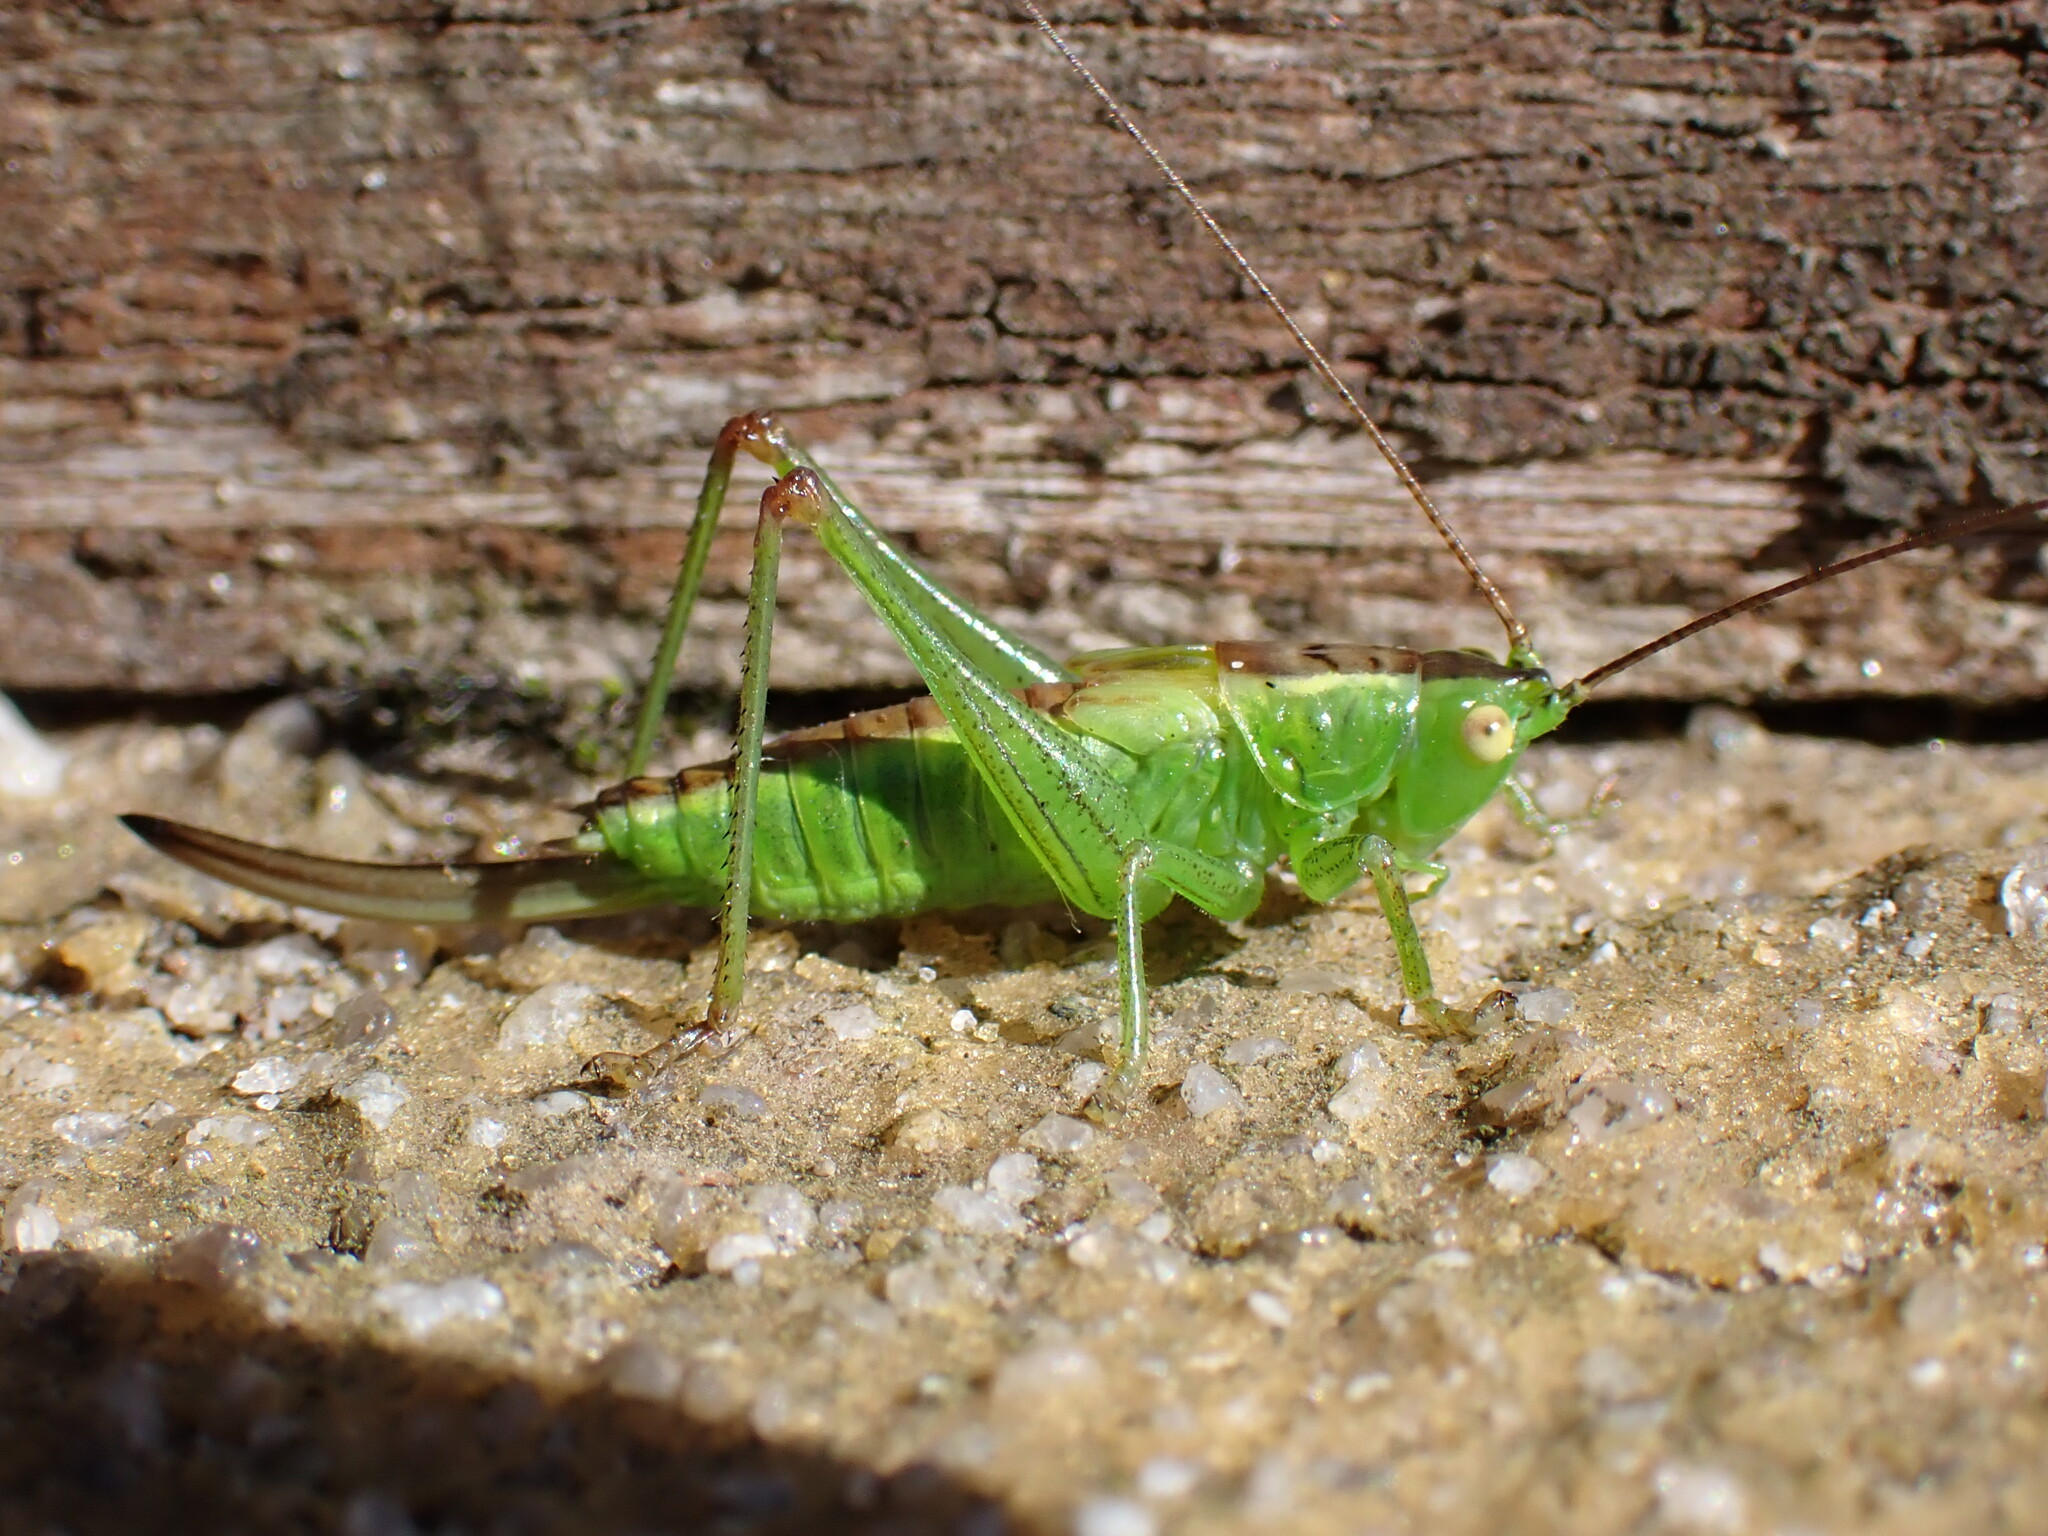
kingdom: Animalia
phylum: Arthropoda
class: Insecta
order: Orthoptera
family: Tettigoniidae
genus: Conocephalus
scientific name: Conocephalus dorsalis
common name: Short-winged conehead
